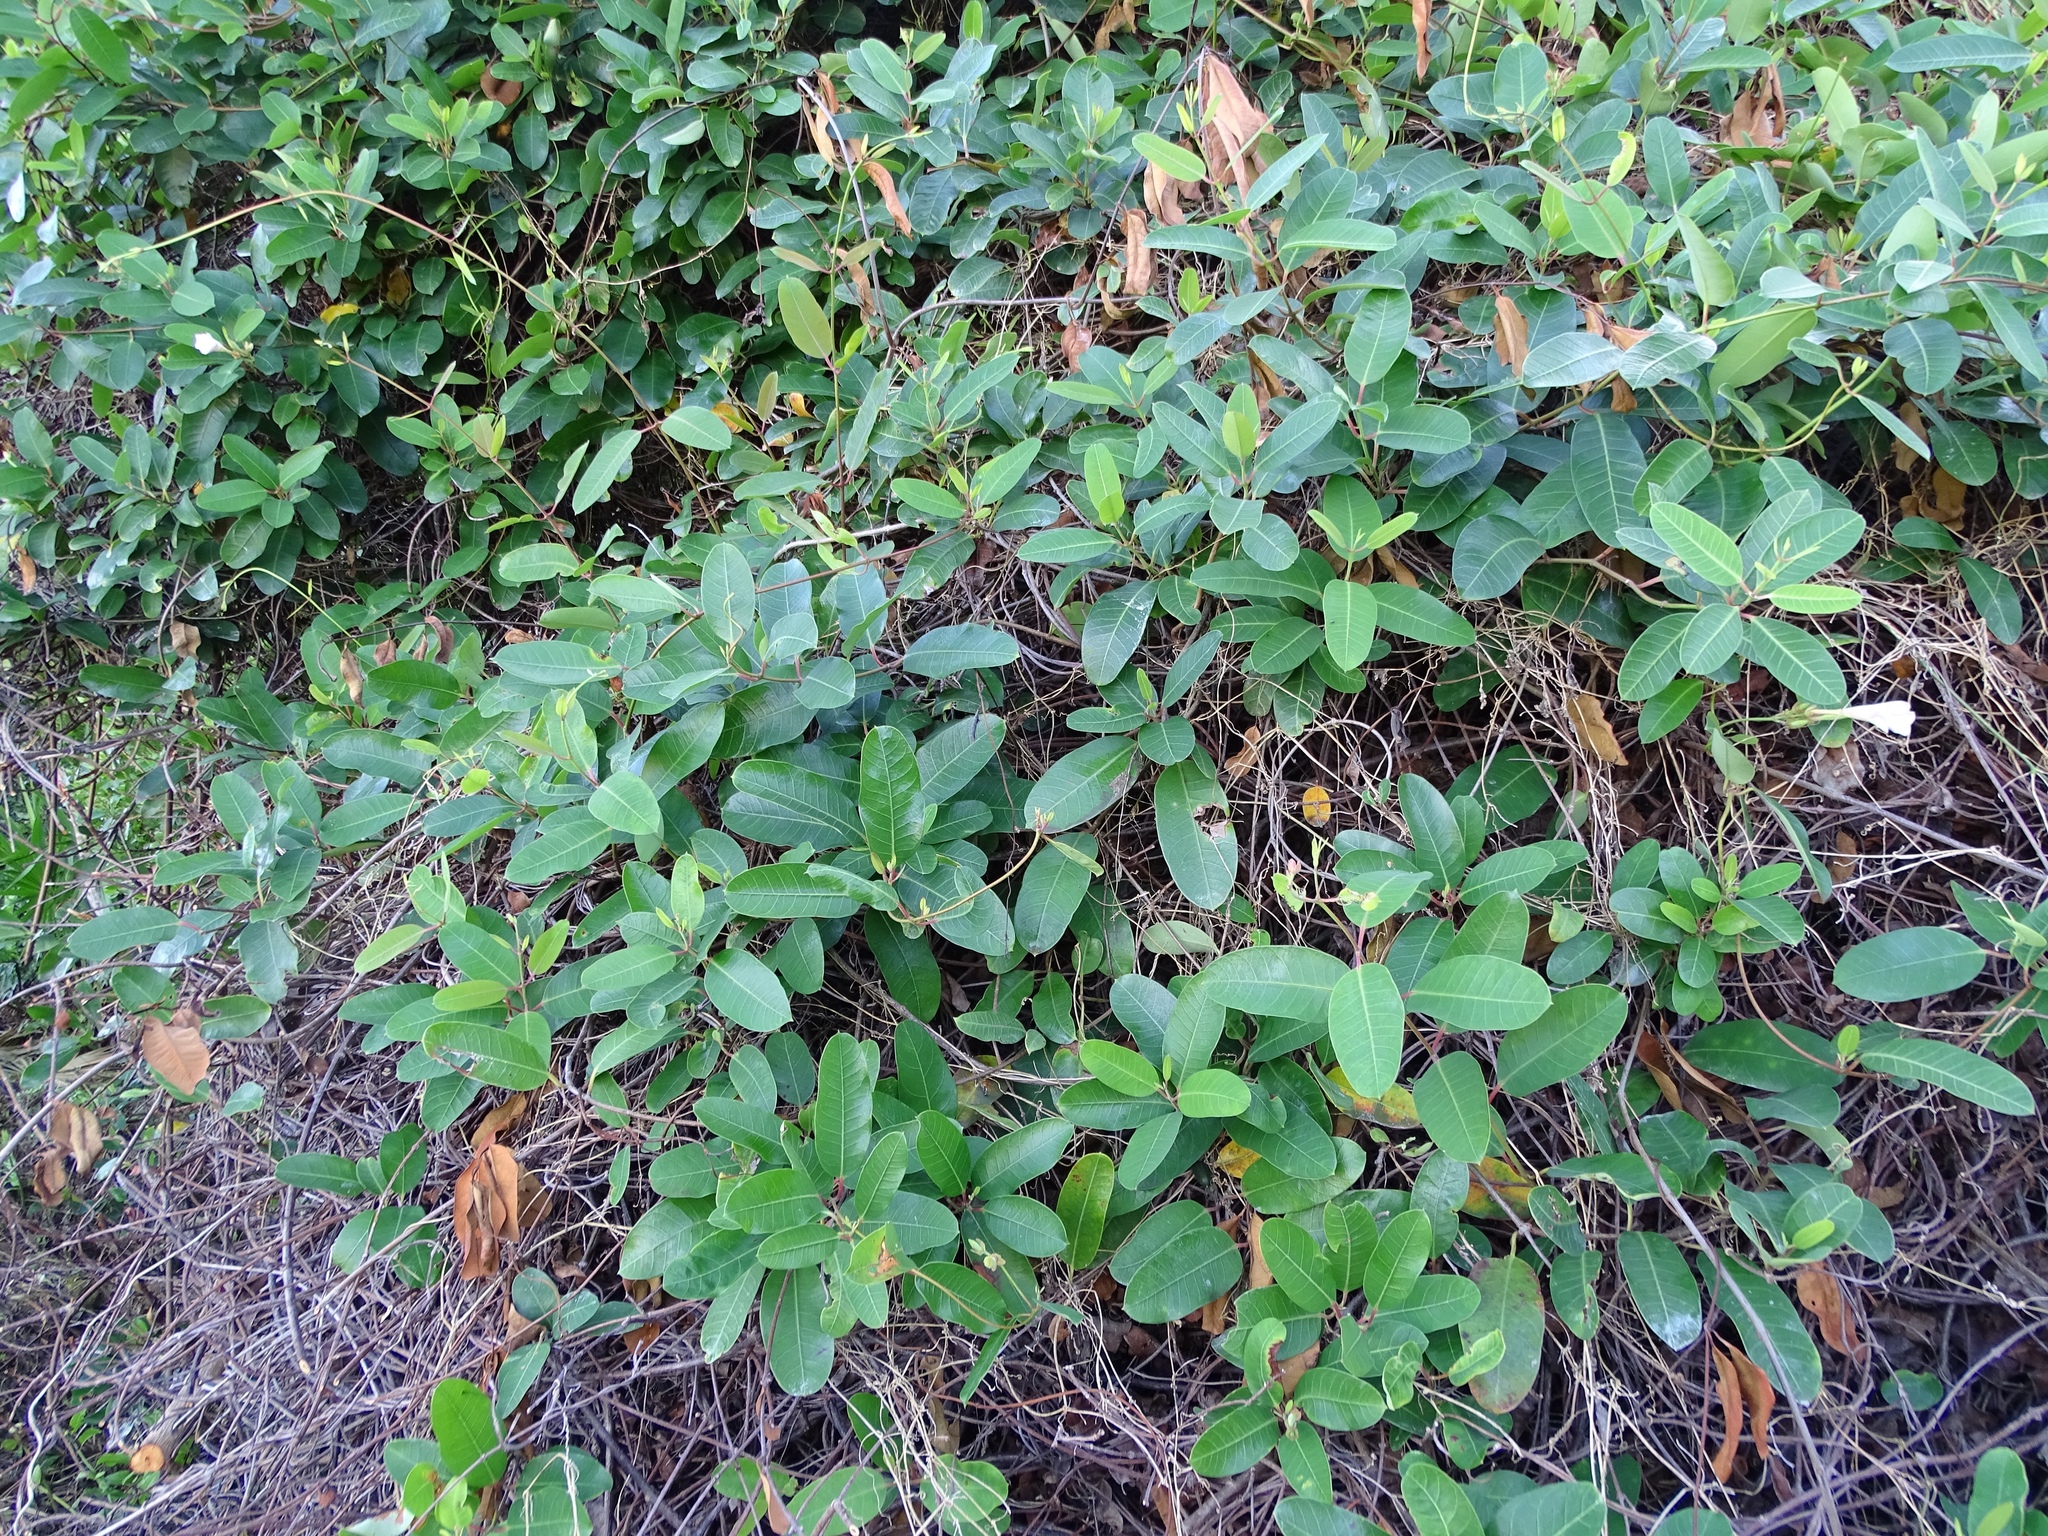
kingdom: Plantae
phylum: Tracheophyta
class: Magnoliopsida
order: Gentianales
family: Apocynaceae
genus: Rhabdadenia
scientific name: Rhabdadenia biflora
